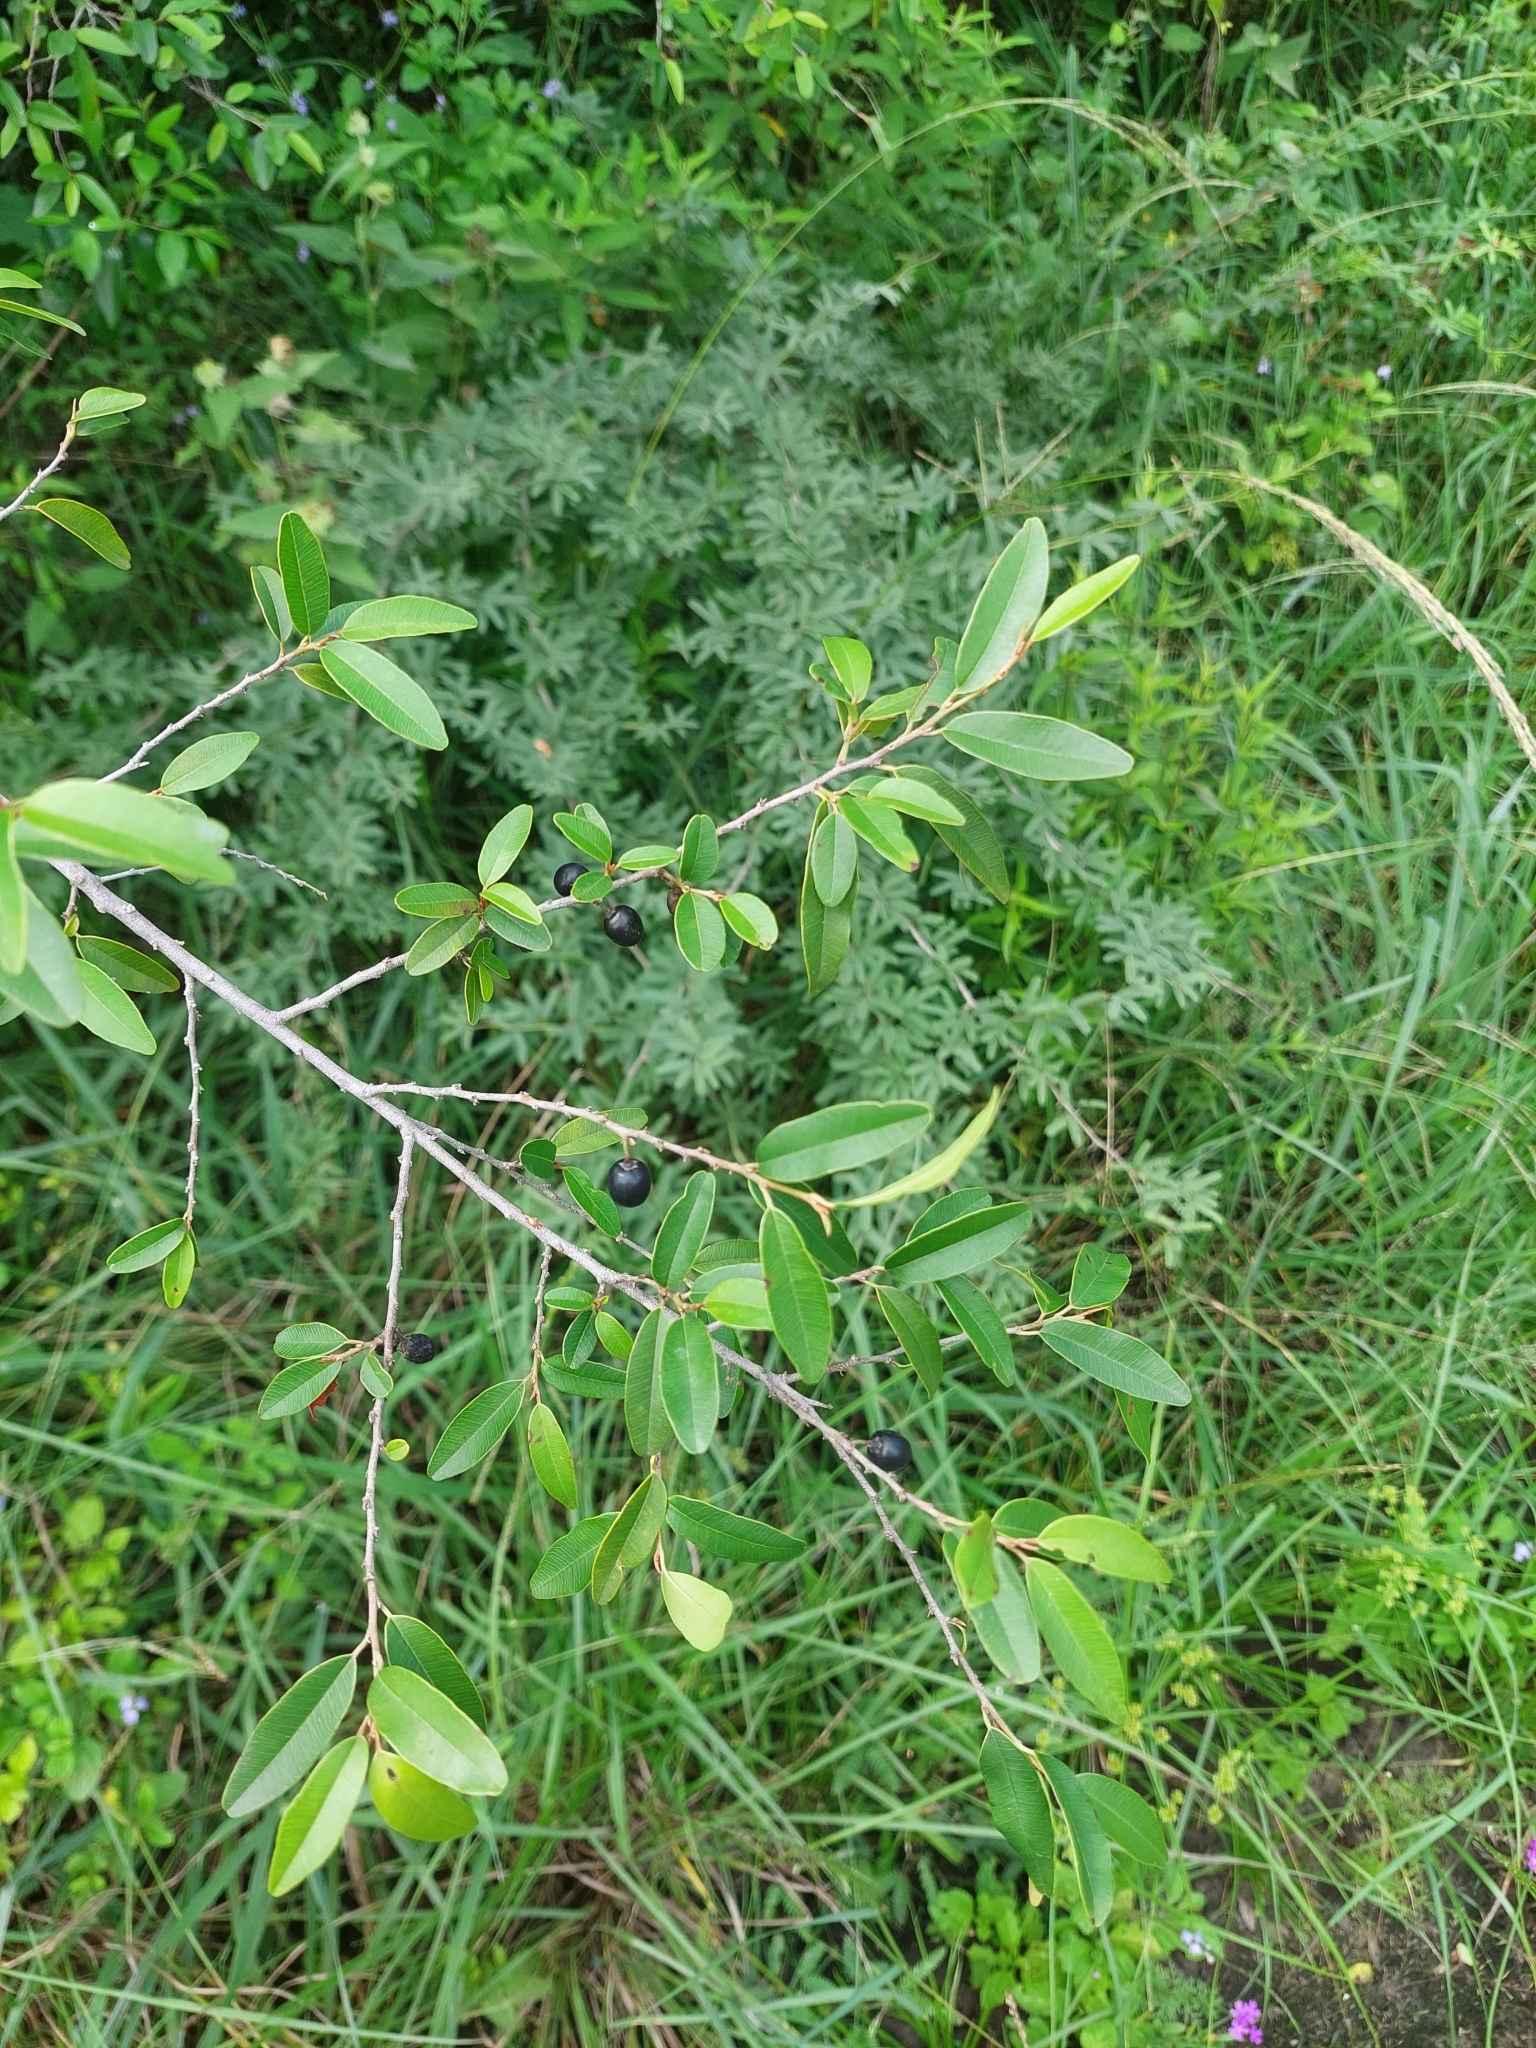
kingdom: Plantae
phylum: Tracheophyta
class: Magnoliopsida
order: Ericales
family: Sapotaceae
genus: Chrysophyllum
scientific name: Chrysophyllum marginatum
